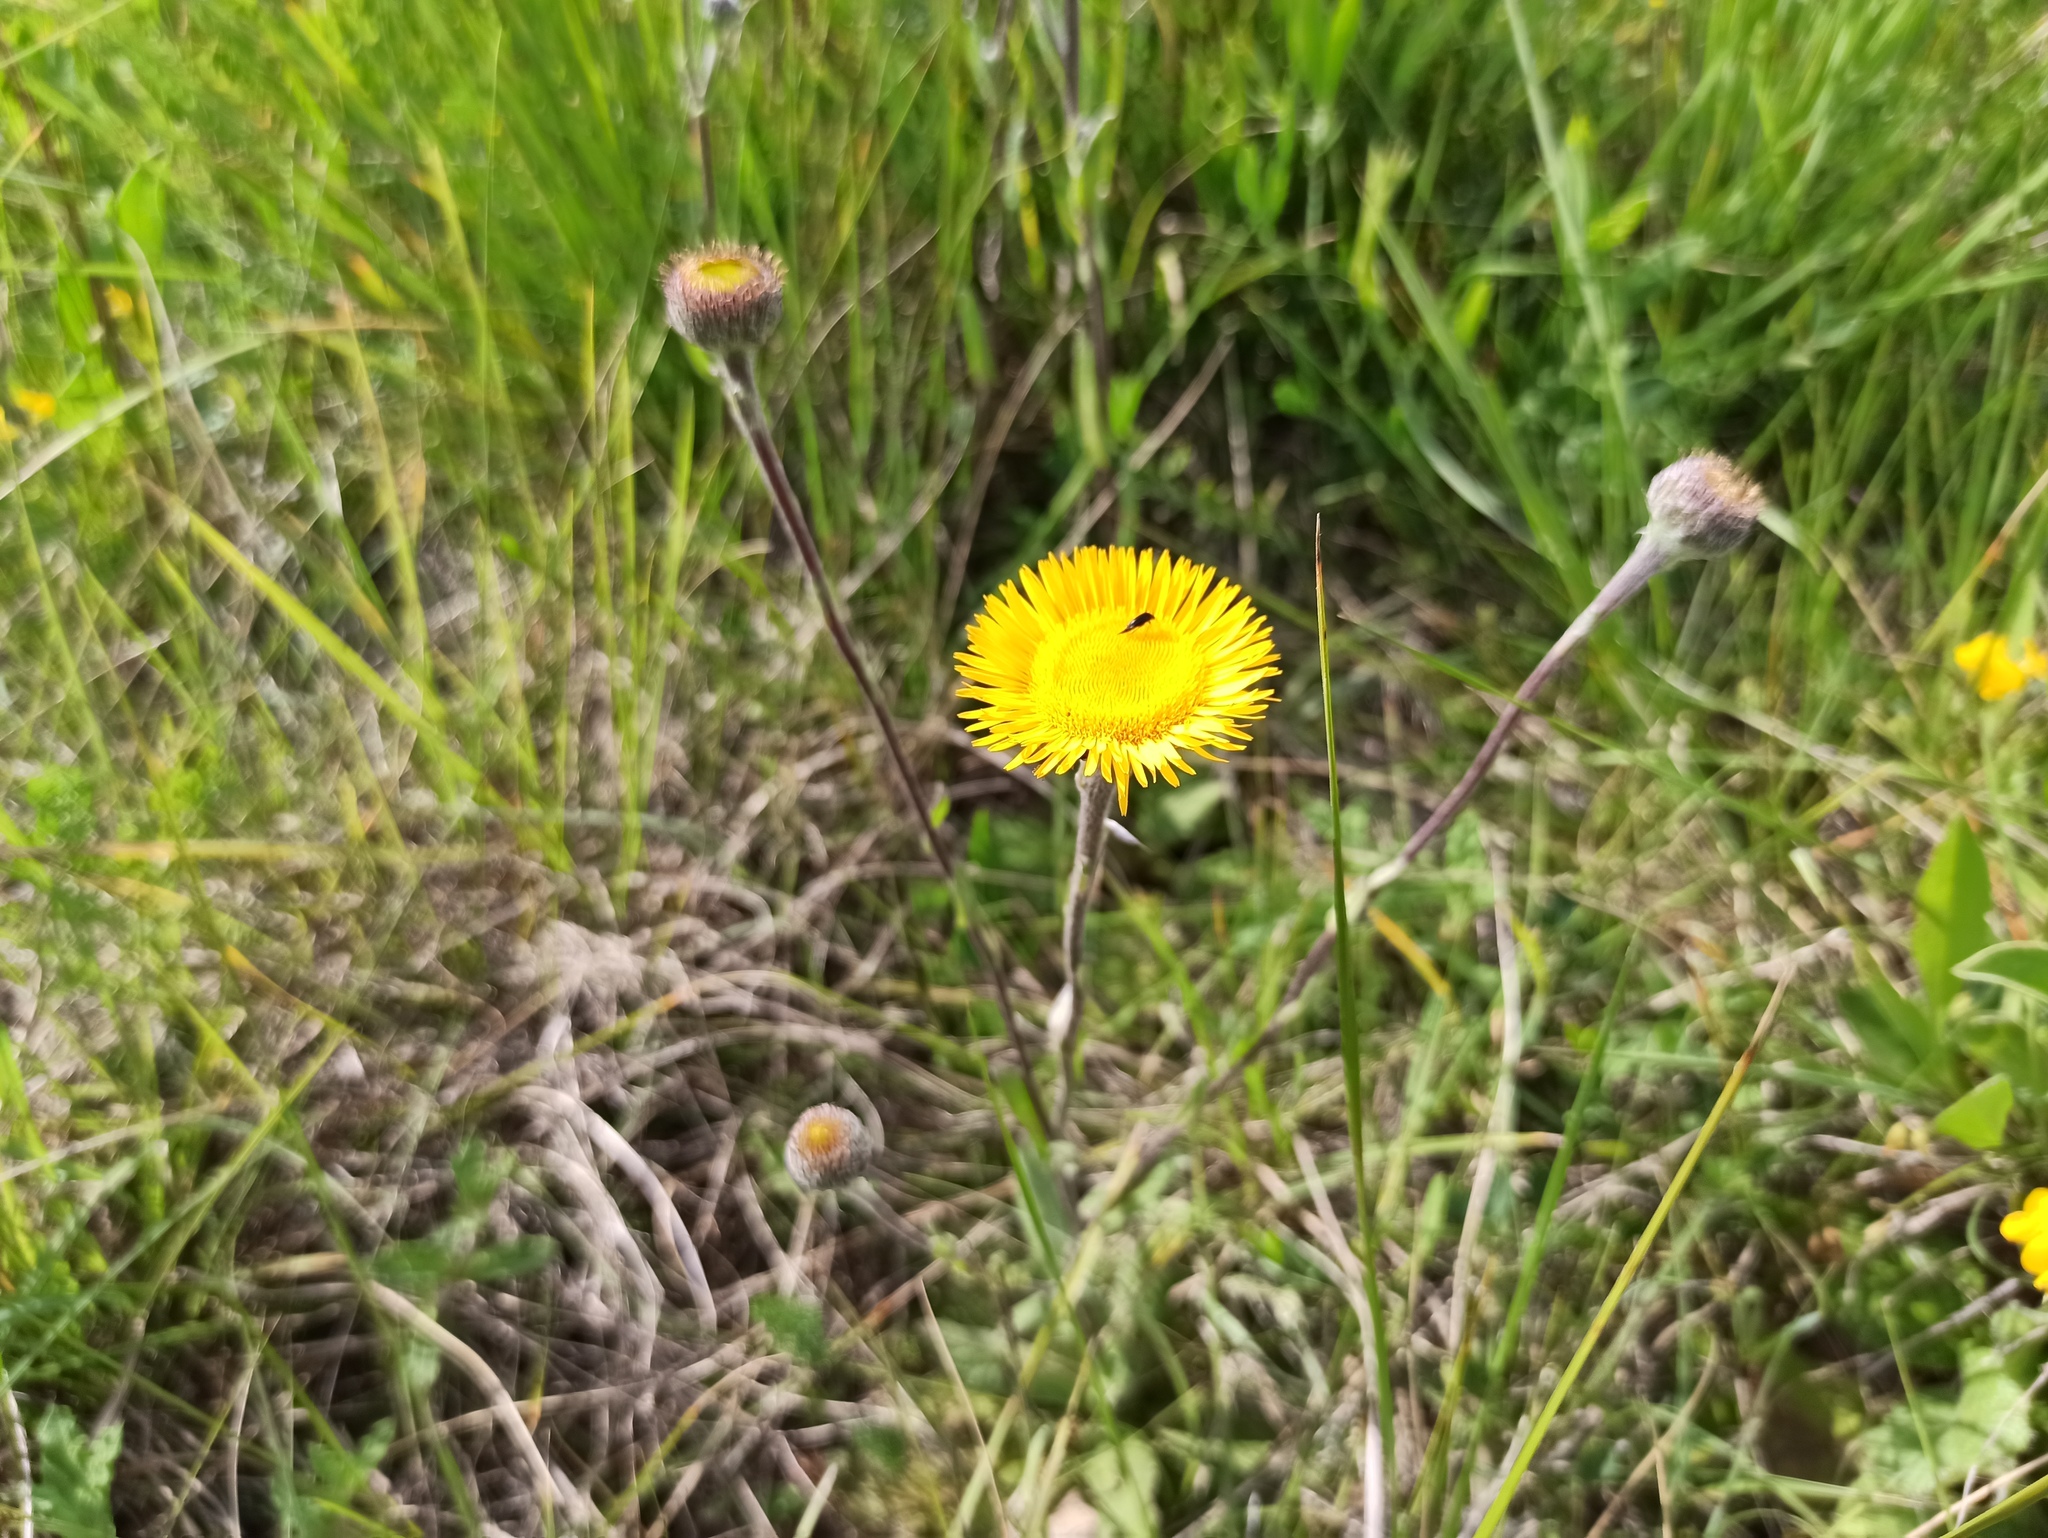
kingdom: Plantae
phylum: Tracheophyta
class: Magnoliopsida
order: Asterales
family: Asteraceae
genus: Pulicaria
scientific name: Pulicaria odora
